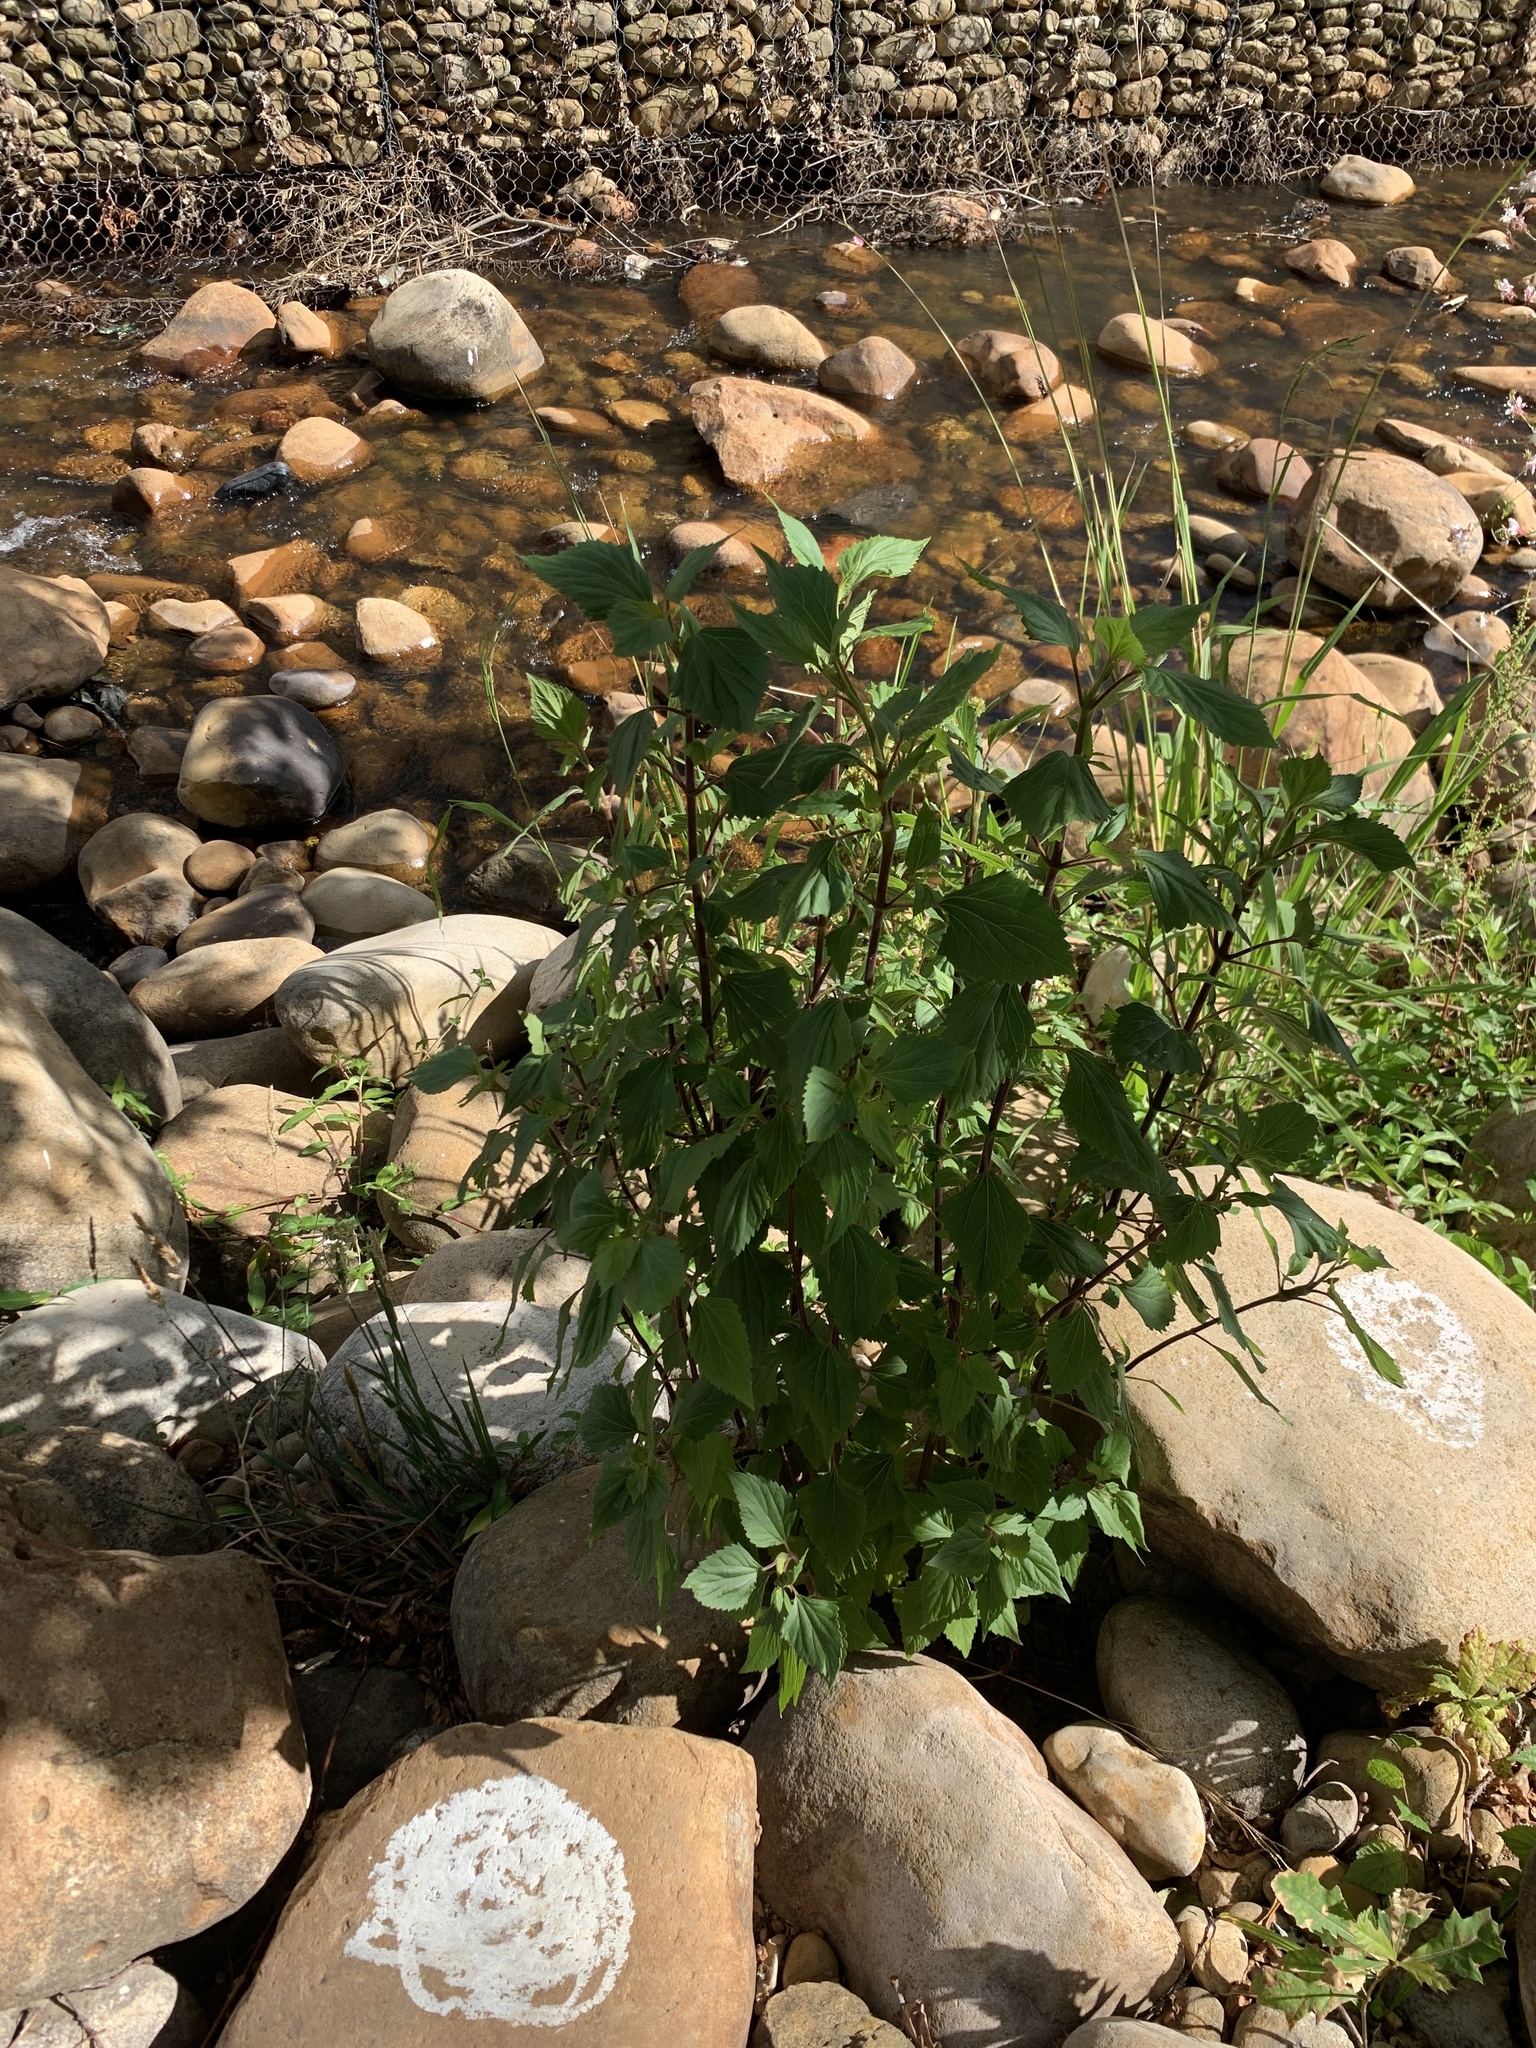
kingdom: Plantae
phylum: Tracheophyta
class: Magnoliopsida
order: Asterales
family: Asteraceae
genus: Ageratina
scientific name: Ageratina adenophora
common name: Sticky snakeroot
